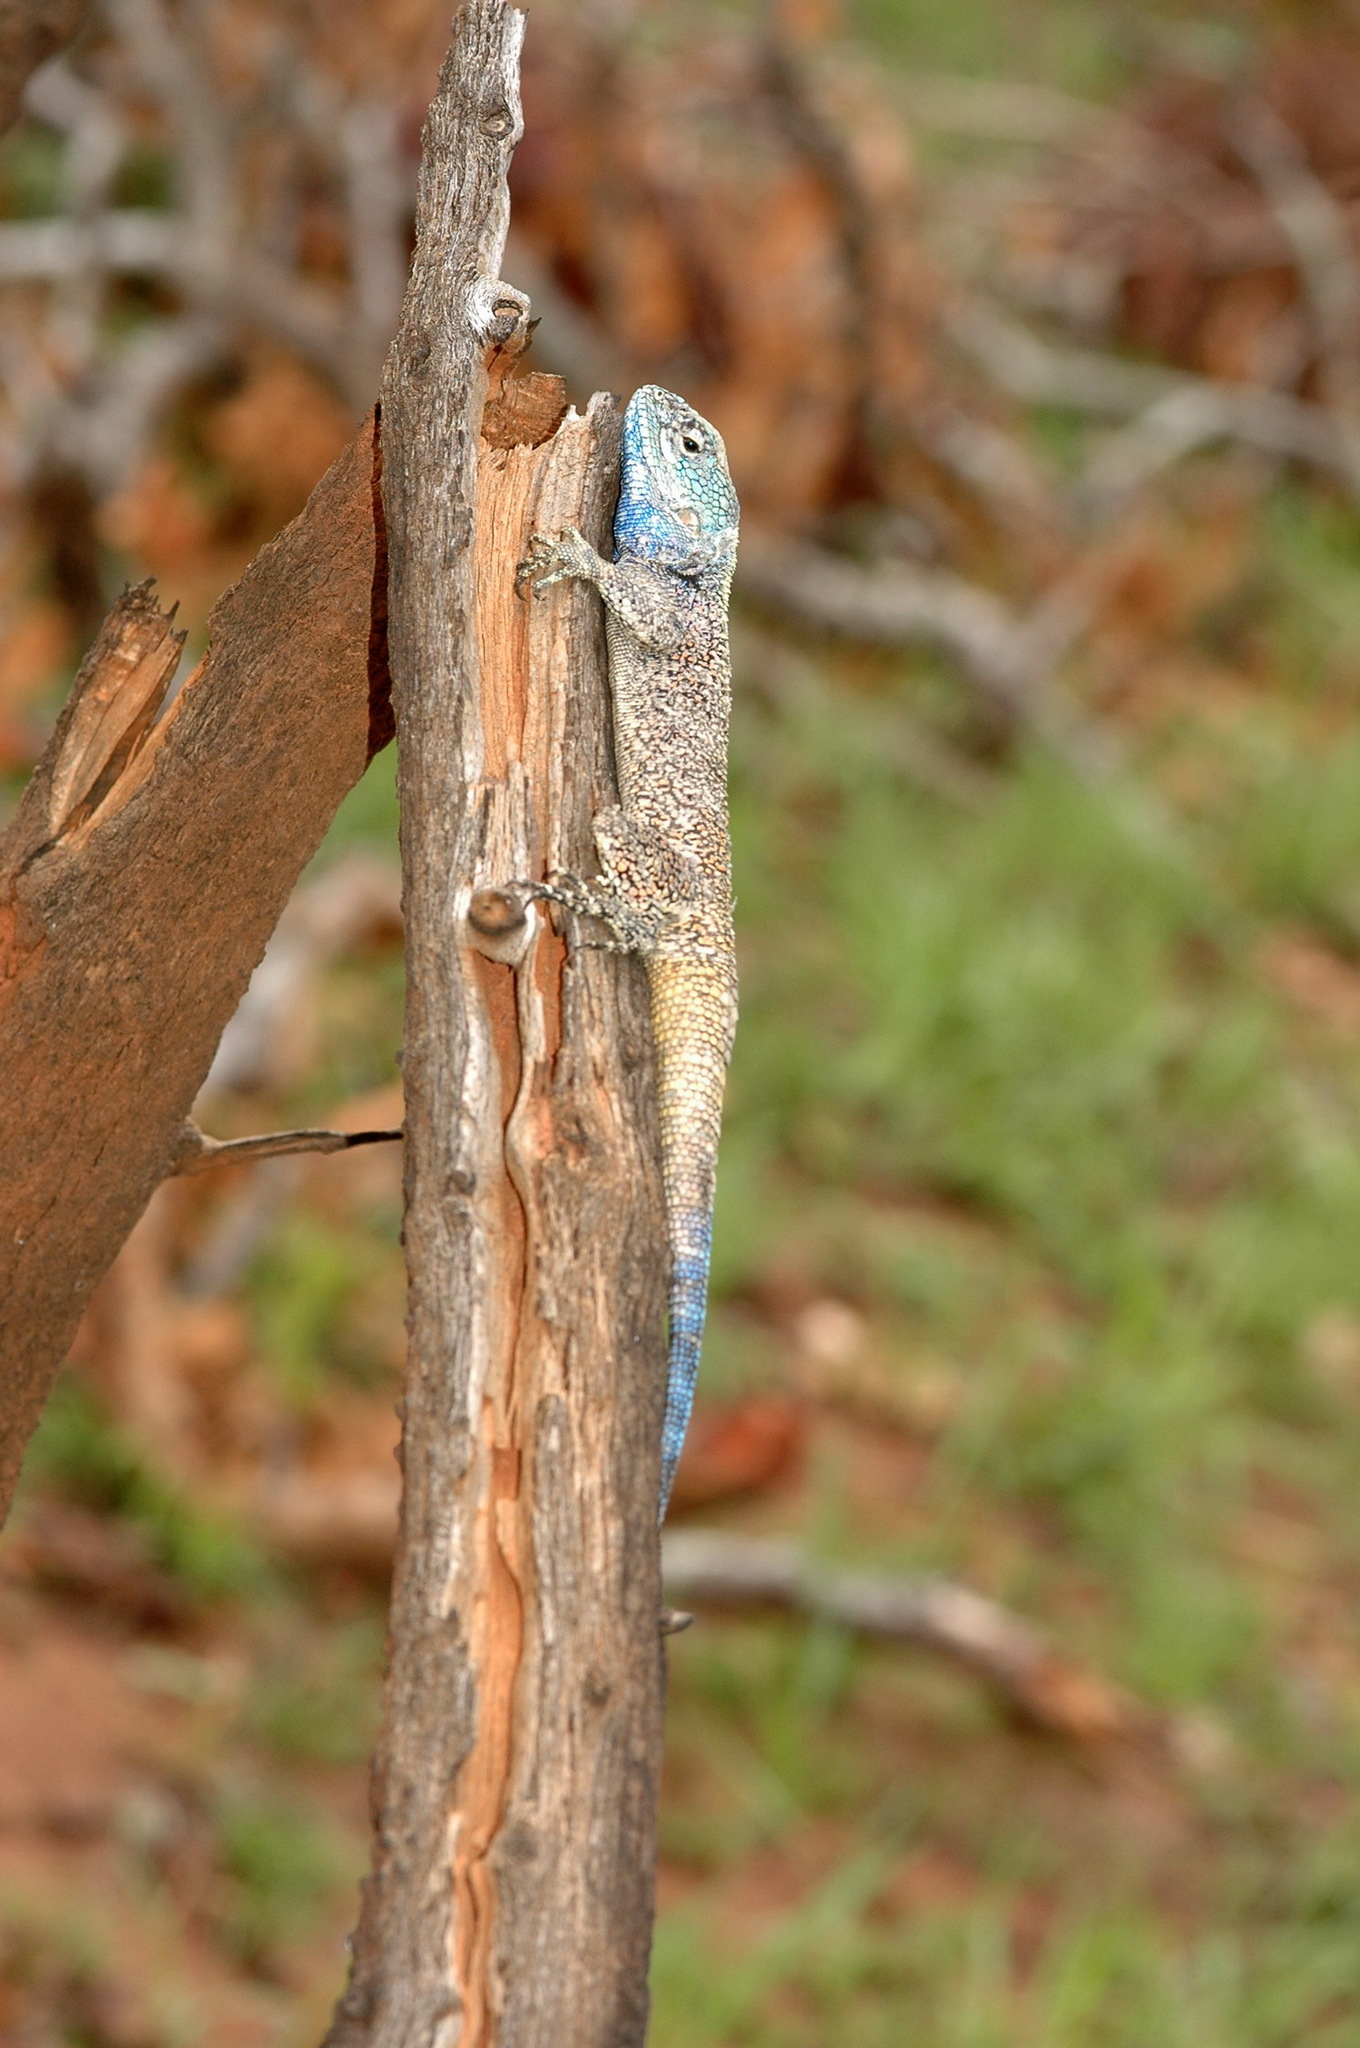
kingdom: Animalia
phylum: Chordata
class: Squamata
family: Agamidae
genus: Acanthocercus
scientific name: Acanthocercus branchi
